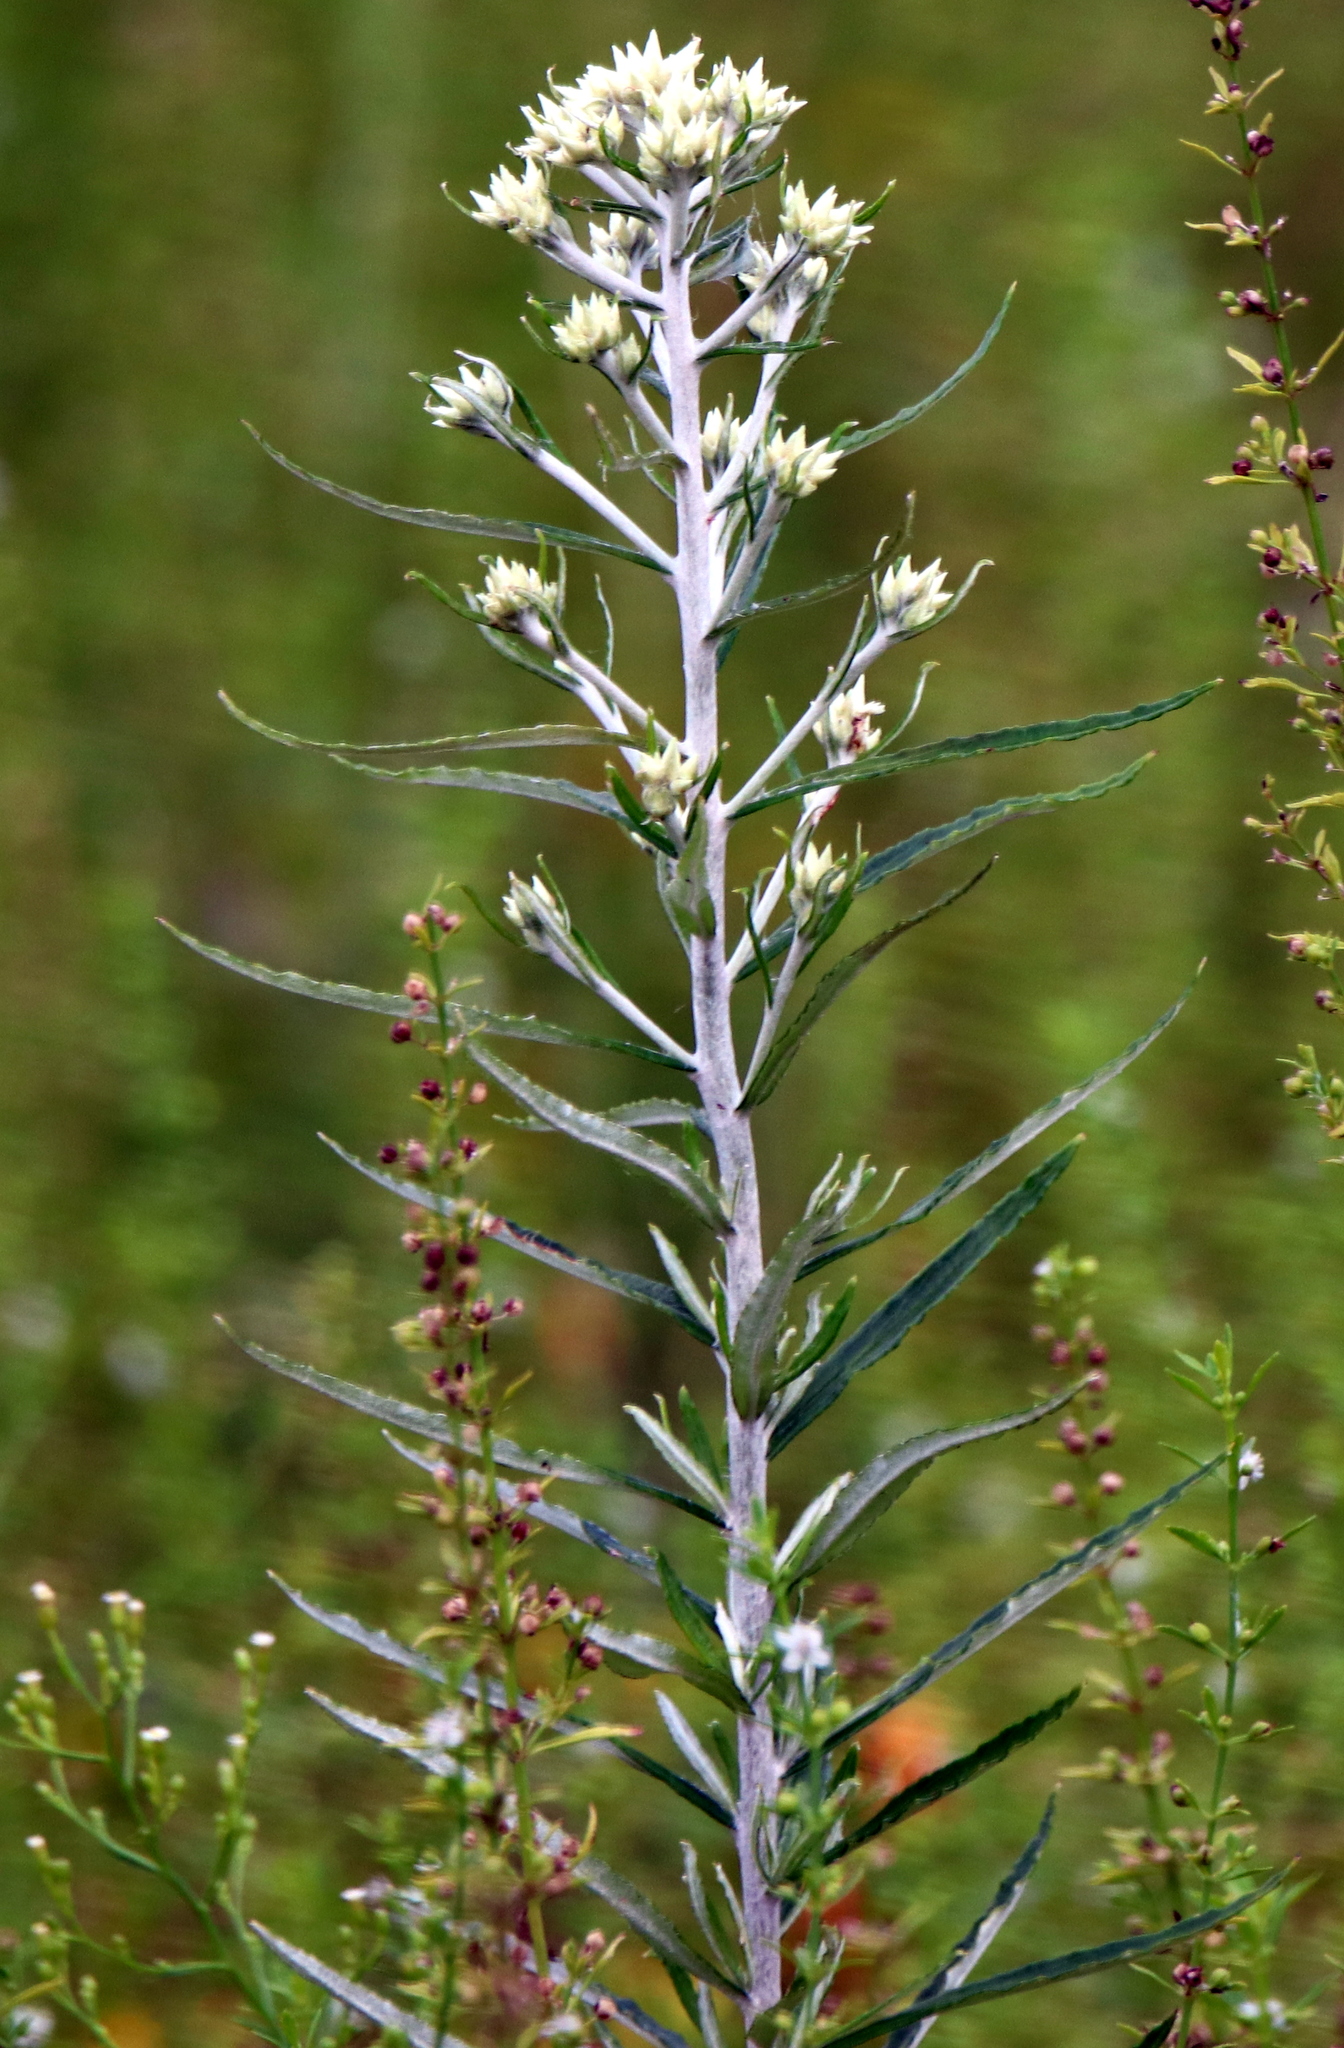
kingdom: Plantae
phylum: Tracheophyta
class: Magnoliopsida
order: Asterales
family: Asteraceae
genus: Pseudognaphalium
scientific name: Pseudognaphalium obtusifolium
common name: Eastern rabbit-tobacco
